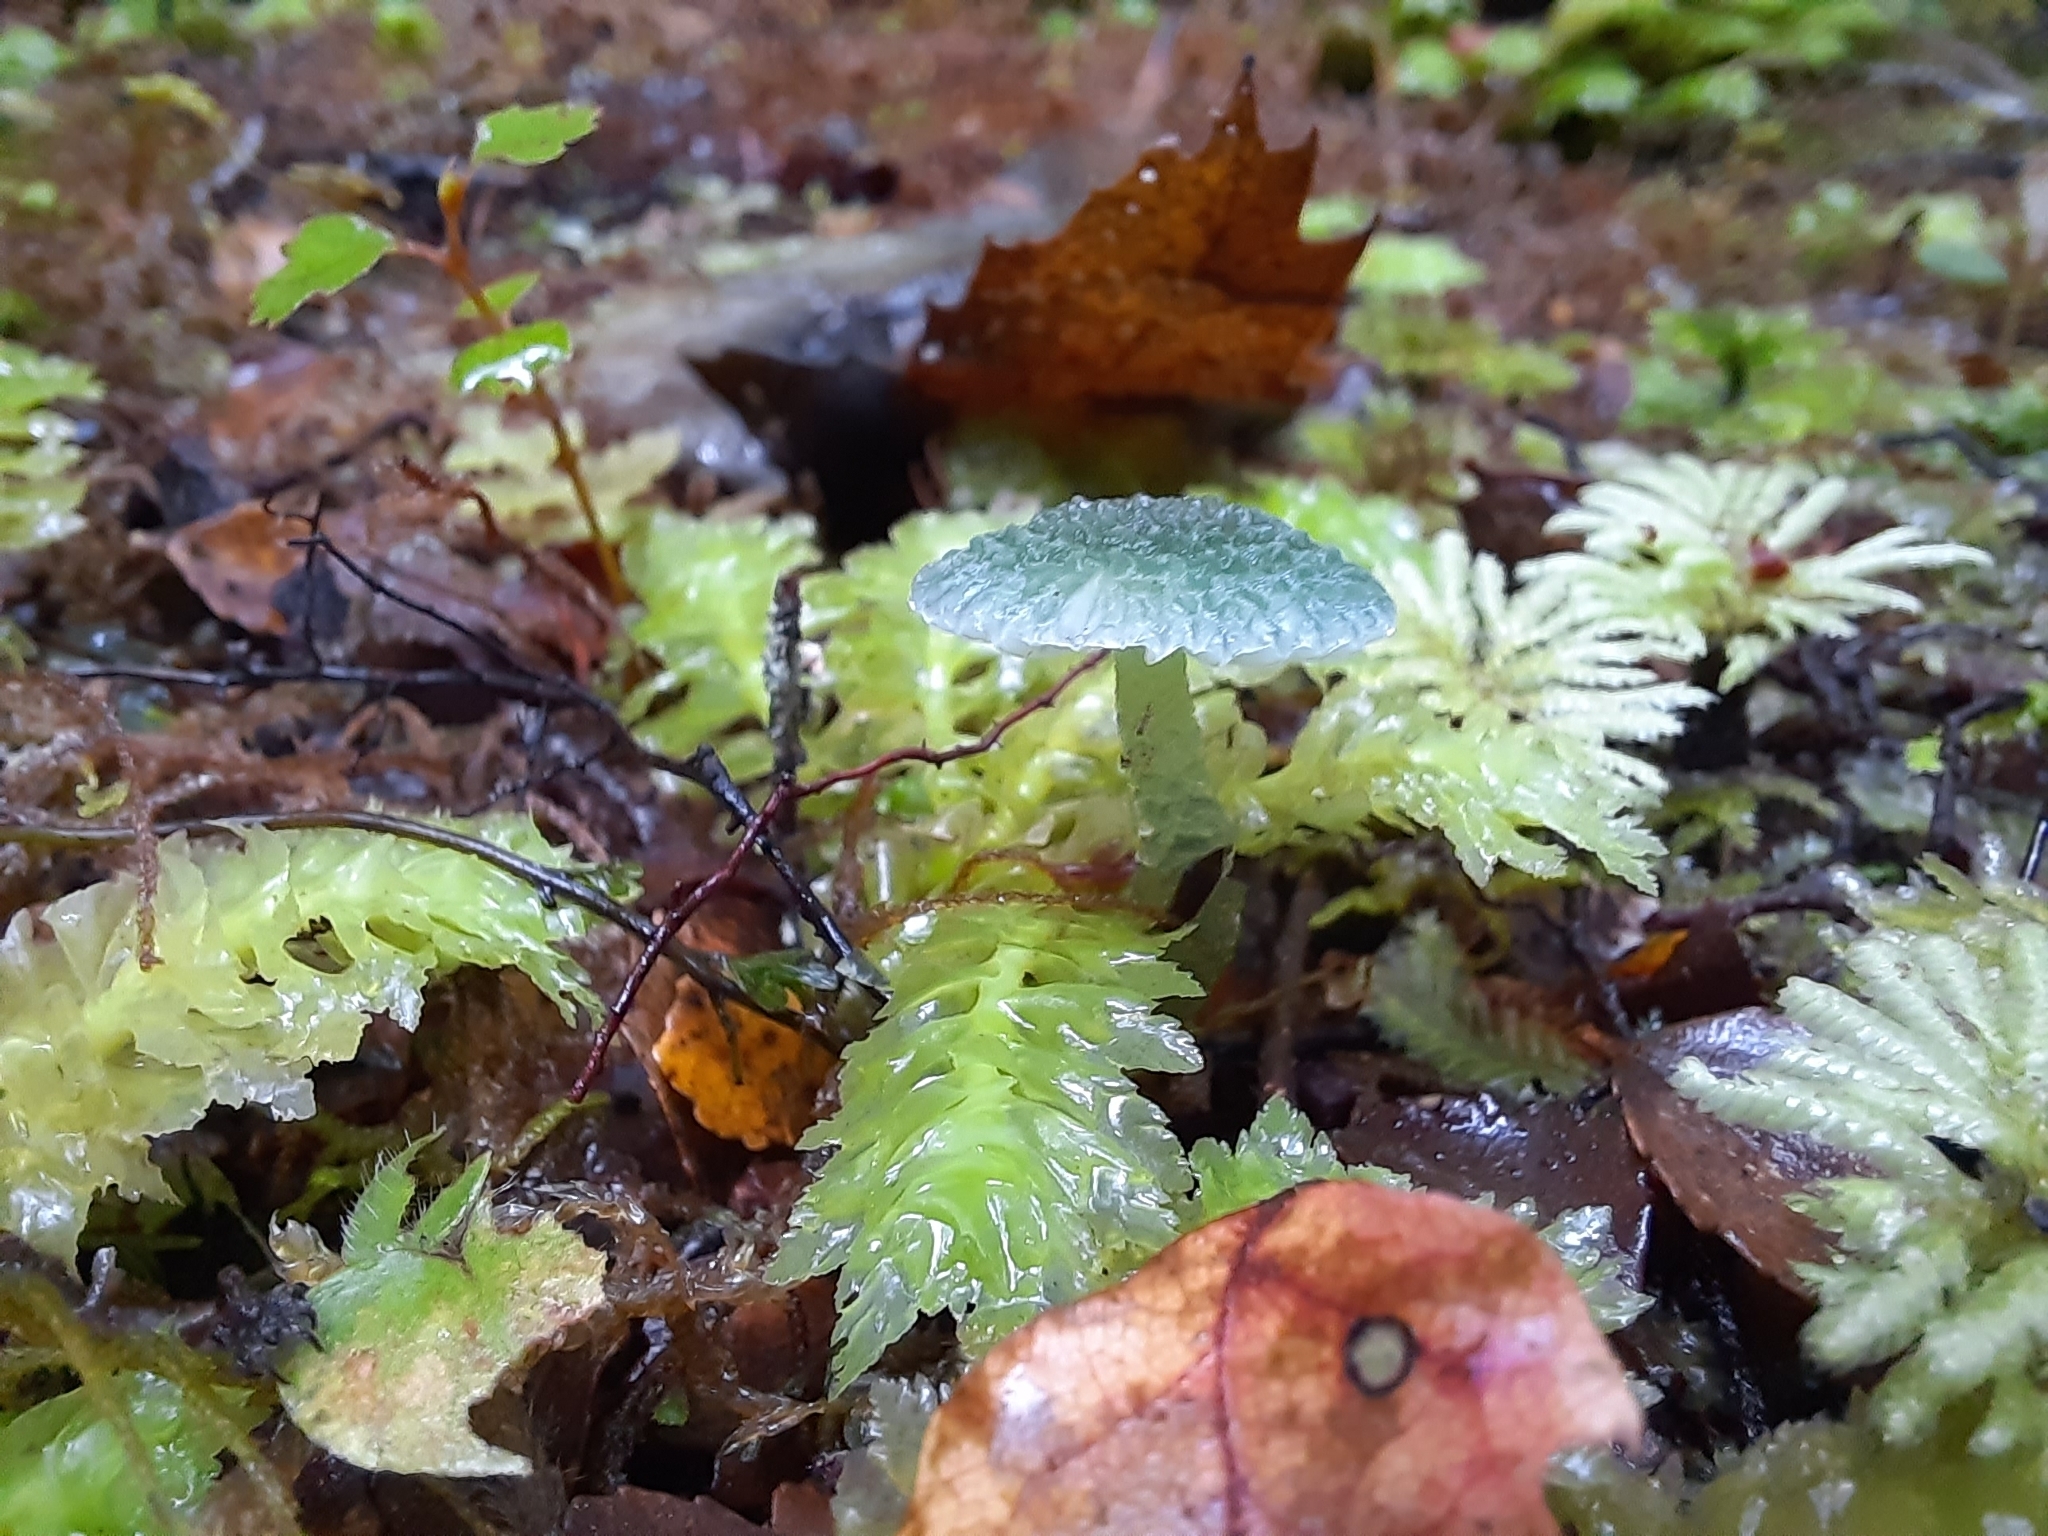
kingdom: Fungi
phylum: Basidiomycota
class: Agaricomycetes
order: Agaricales
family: Hygrophoraceae
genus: Gliophorus
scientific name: Gliophorus graminicolor
